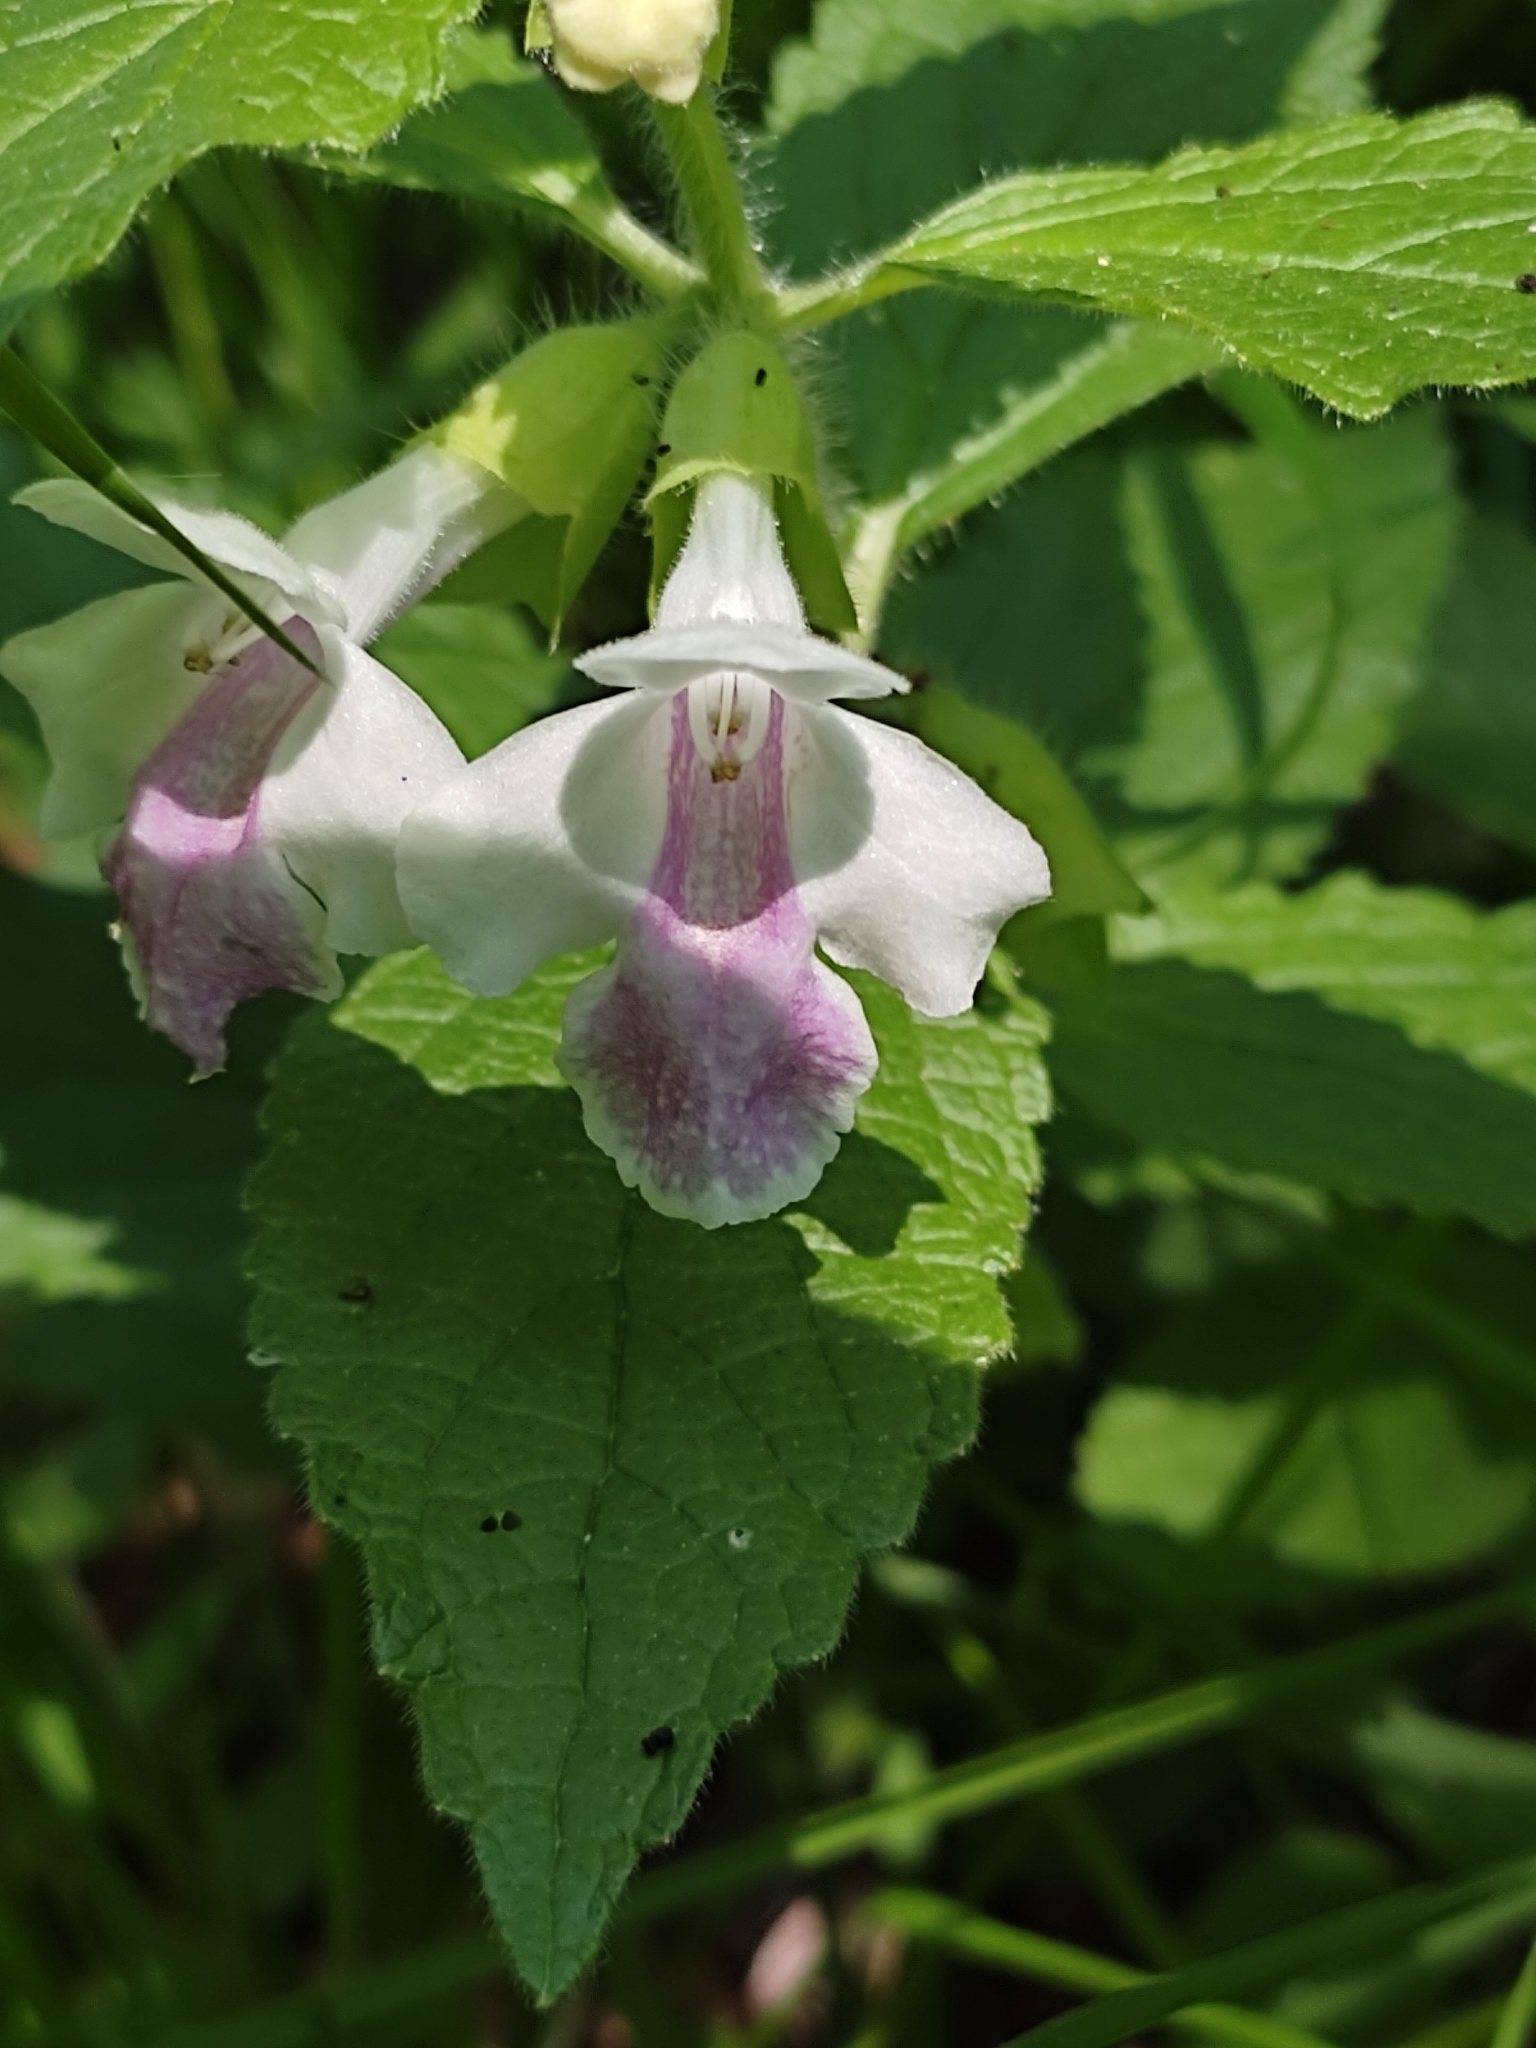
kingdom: Plantae
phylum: Tracheophyta
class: Magnoliopsida
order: Lamiales
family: Lamiaceae
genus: Melittis
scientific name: Melittis melissophyllum
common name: Bastard balm
